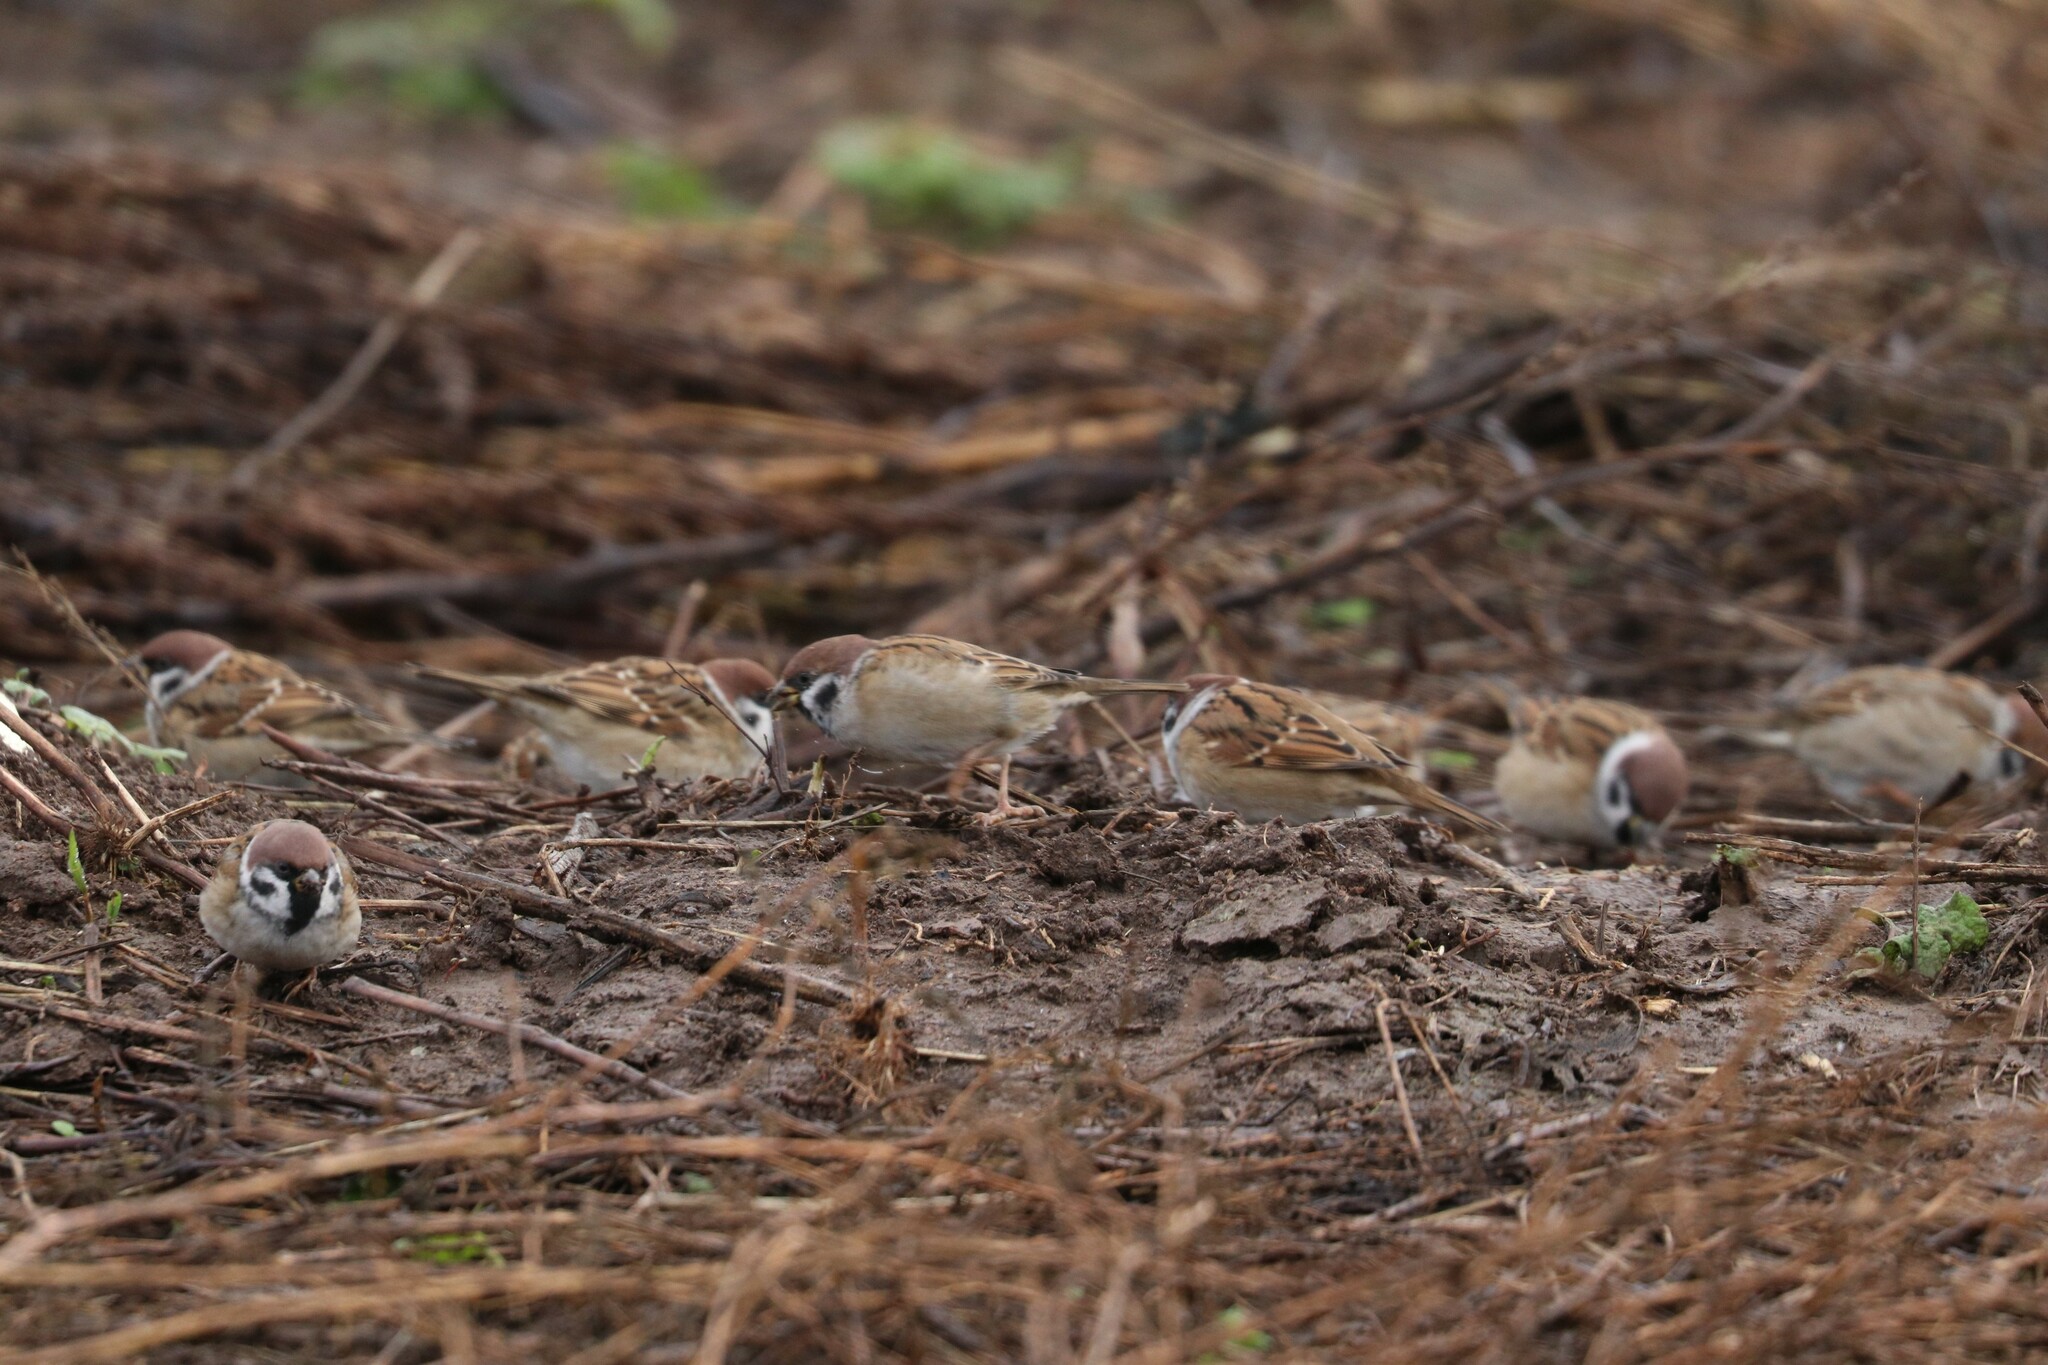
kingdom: Animalia
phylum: Chordata
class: Aves
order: Passeriformes
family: Passeridae
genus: Passer
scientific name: Passer montanus
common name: Eurasian tree sparrow
